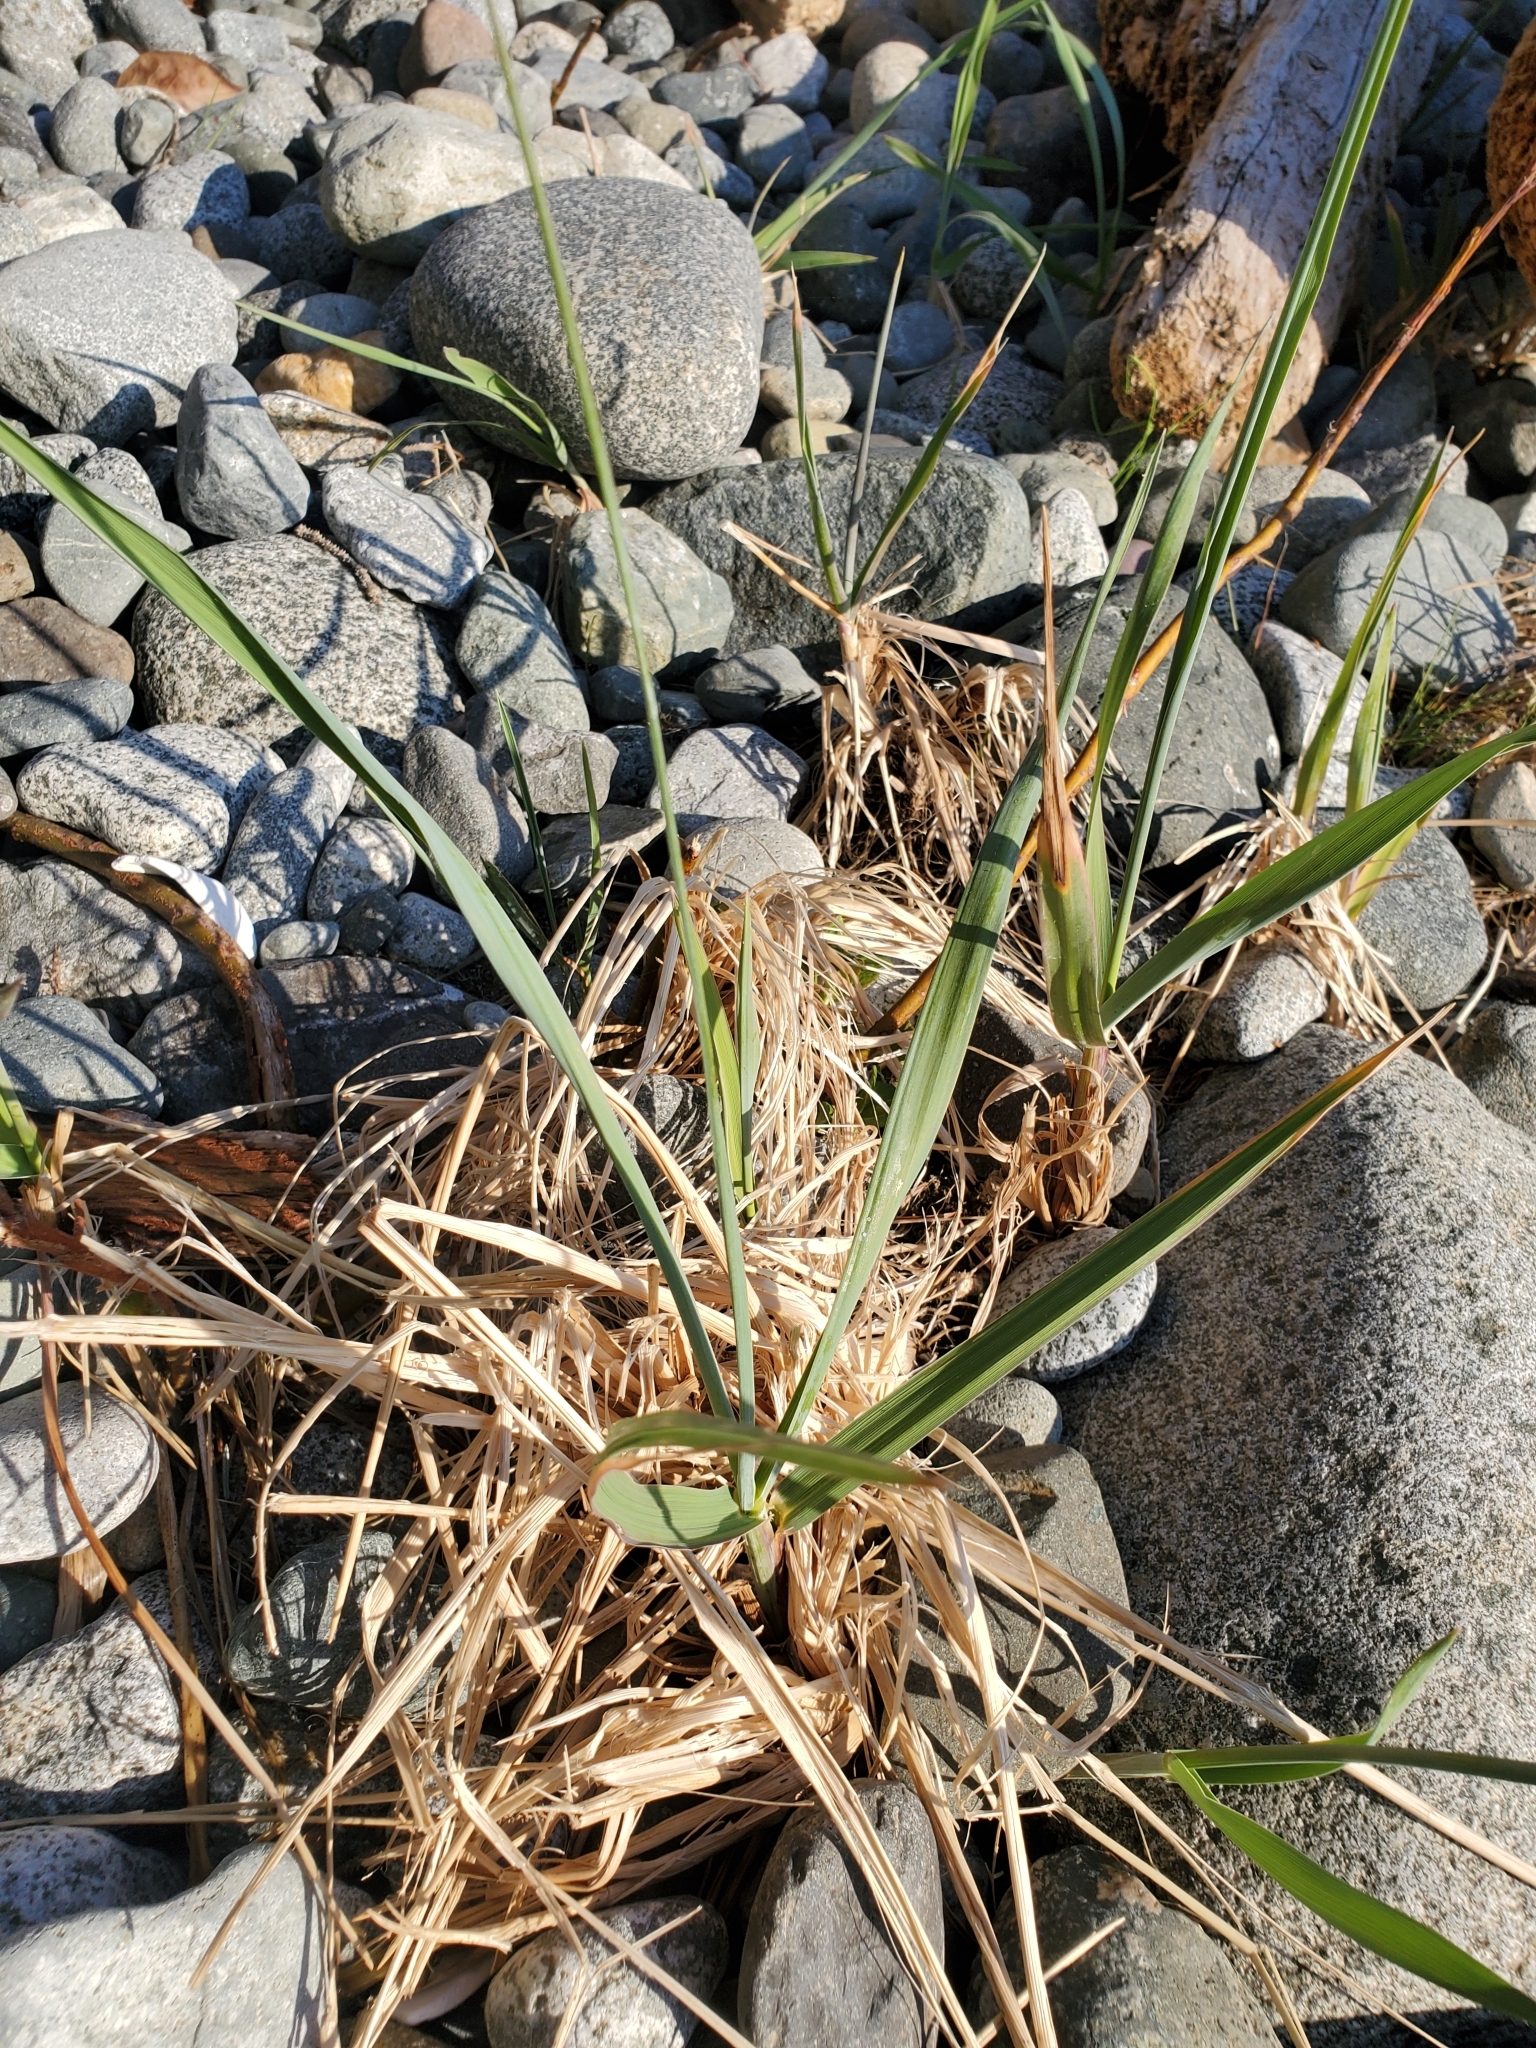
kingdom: Plantae
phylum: Tracheophyta
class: Liliopsida
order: Poales
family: Poaceae
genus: Leymus
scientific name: Leymus mollis
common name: American dune grass
